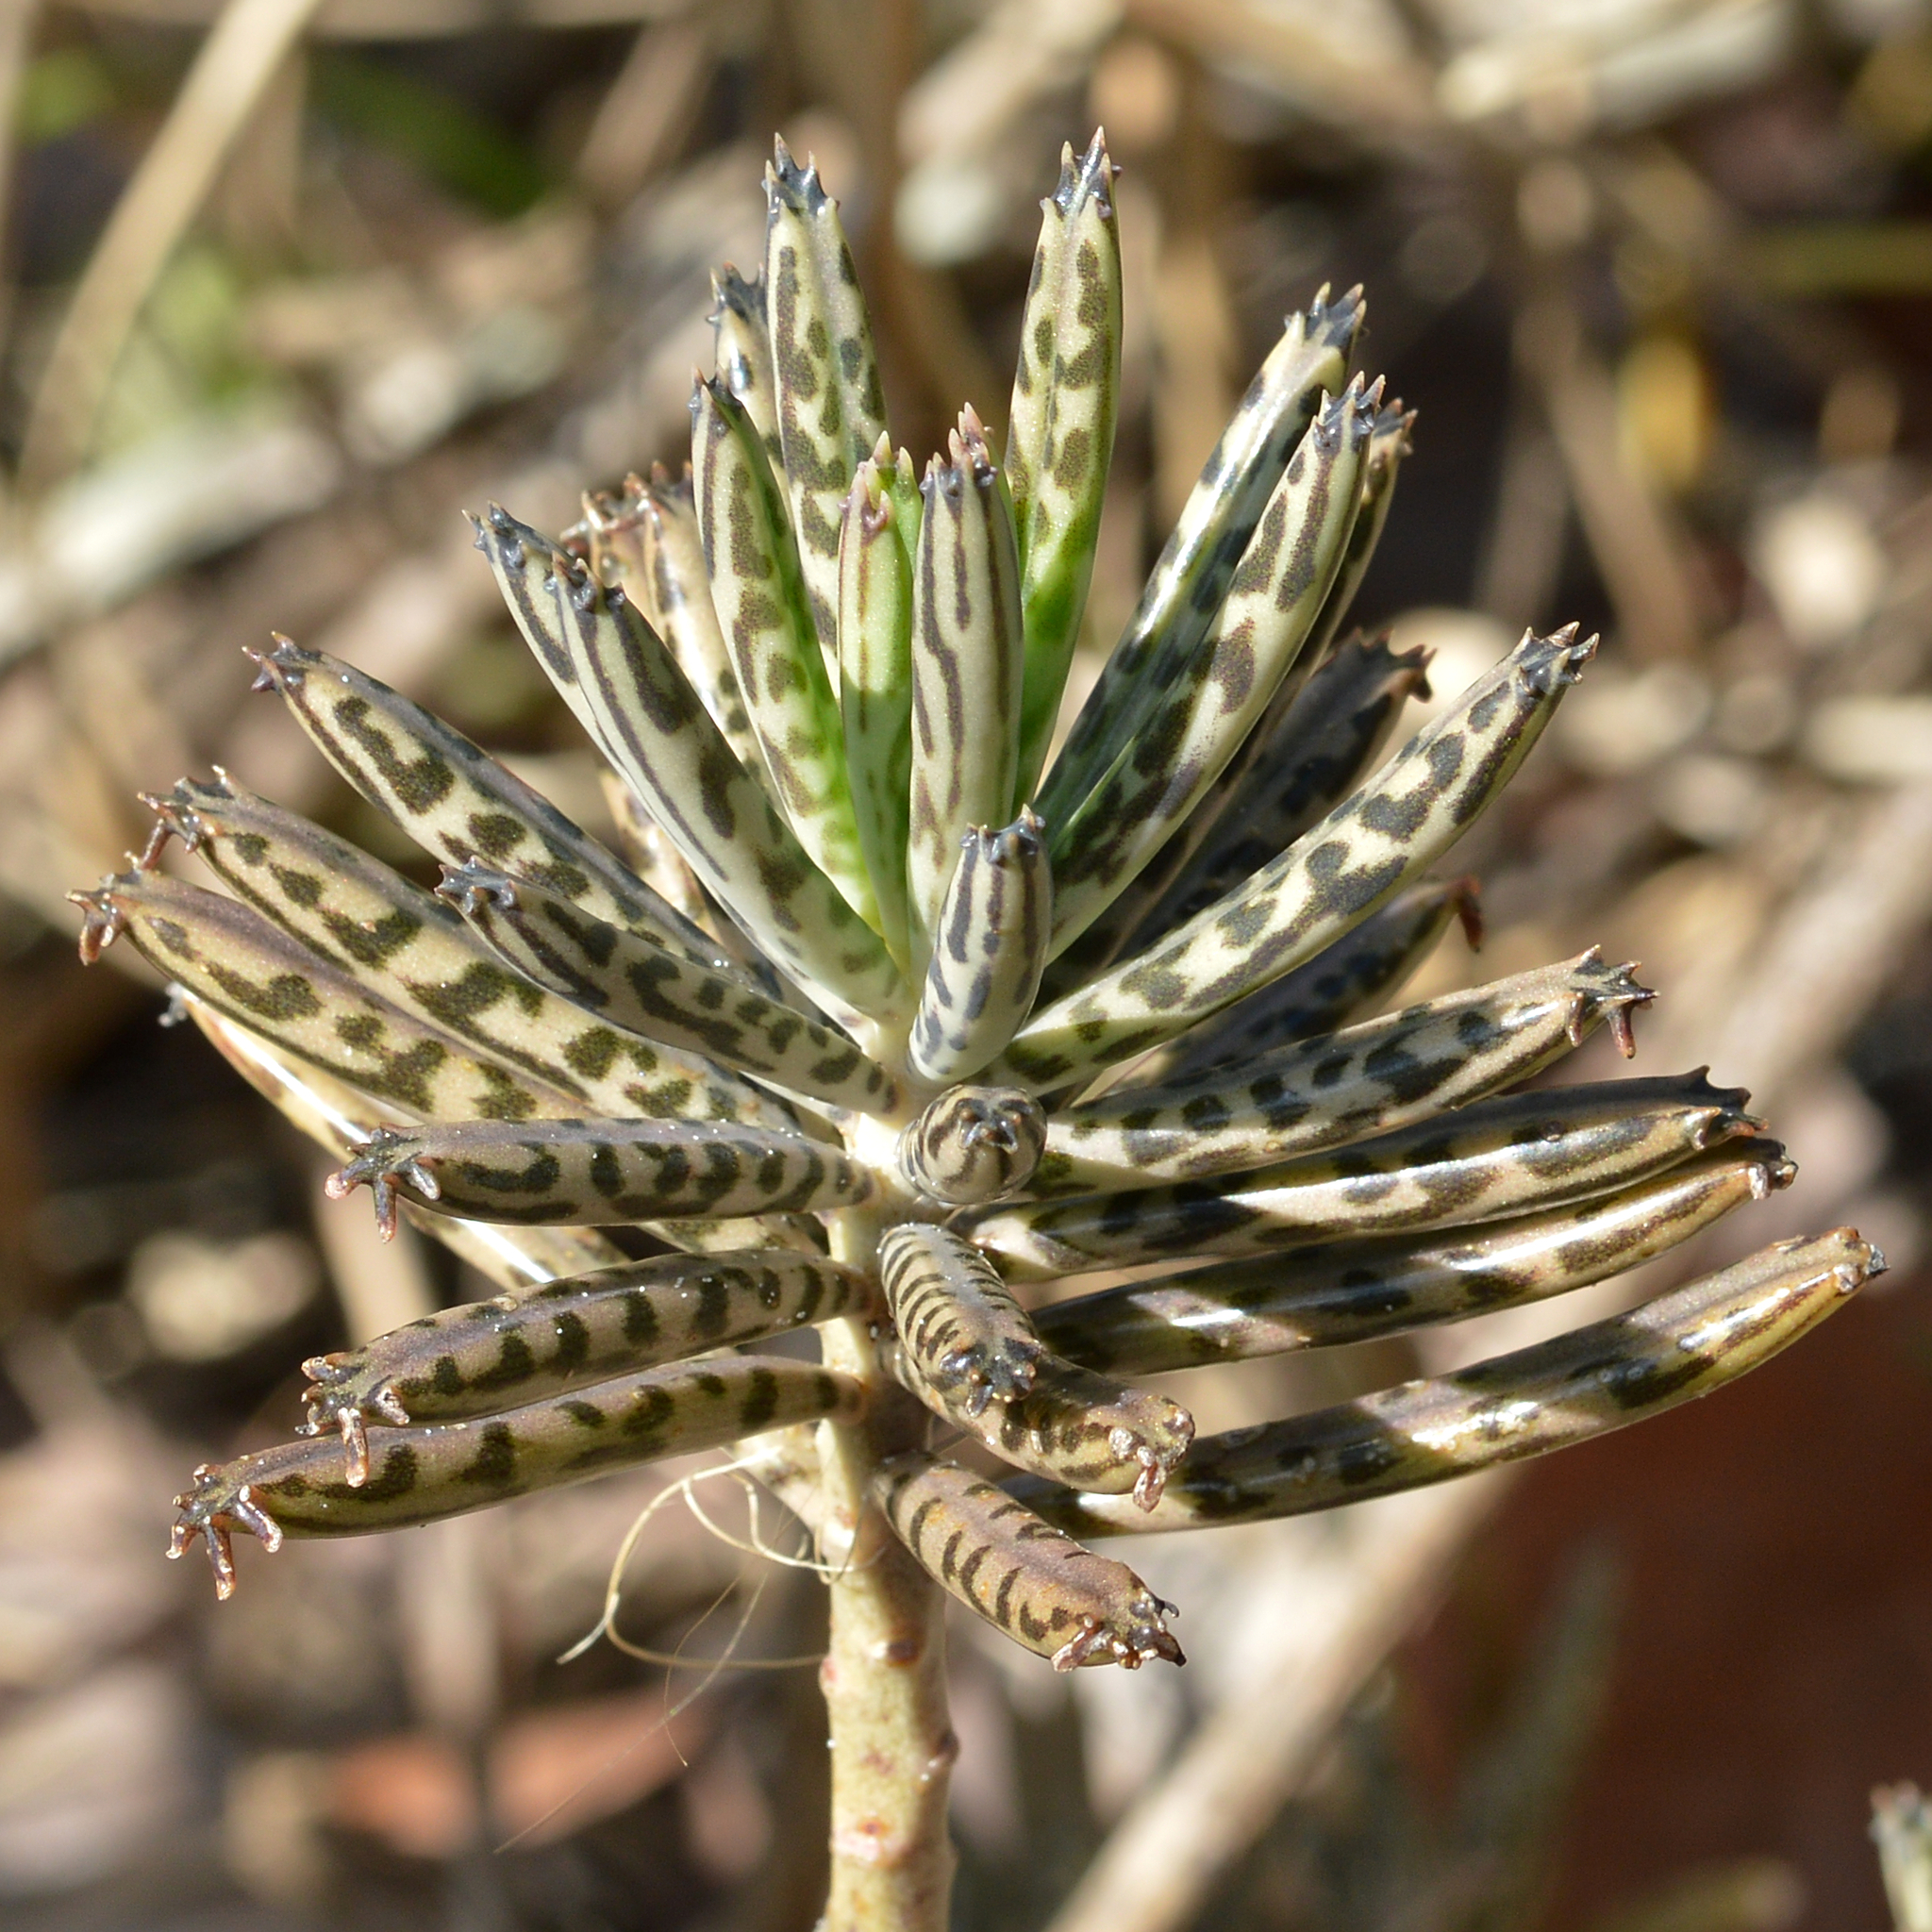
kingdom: Plantae
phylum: Tracheophyta
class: Magnoliopsida
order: Saxifragales
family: Crassulaceae
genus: Kalanchoe
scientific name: Kalanchoe delagoensis
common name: Chandelier plant
